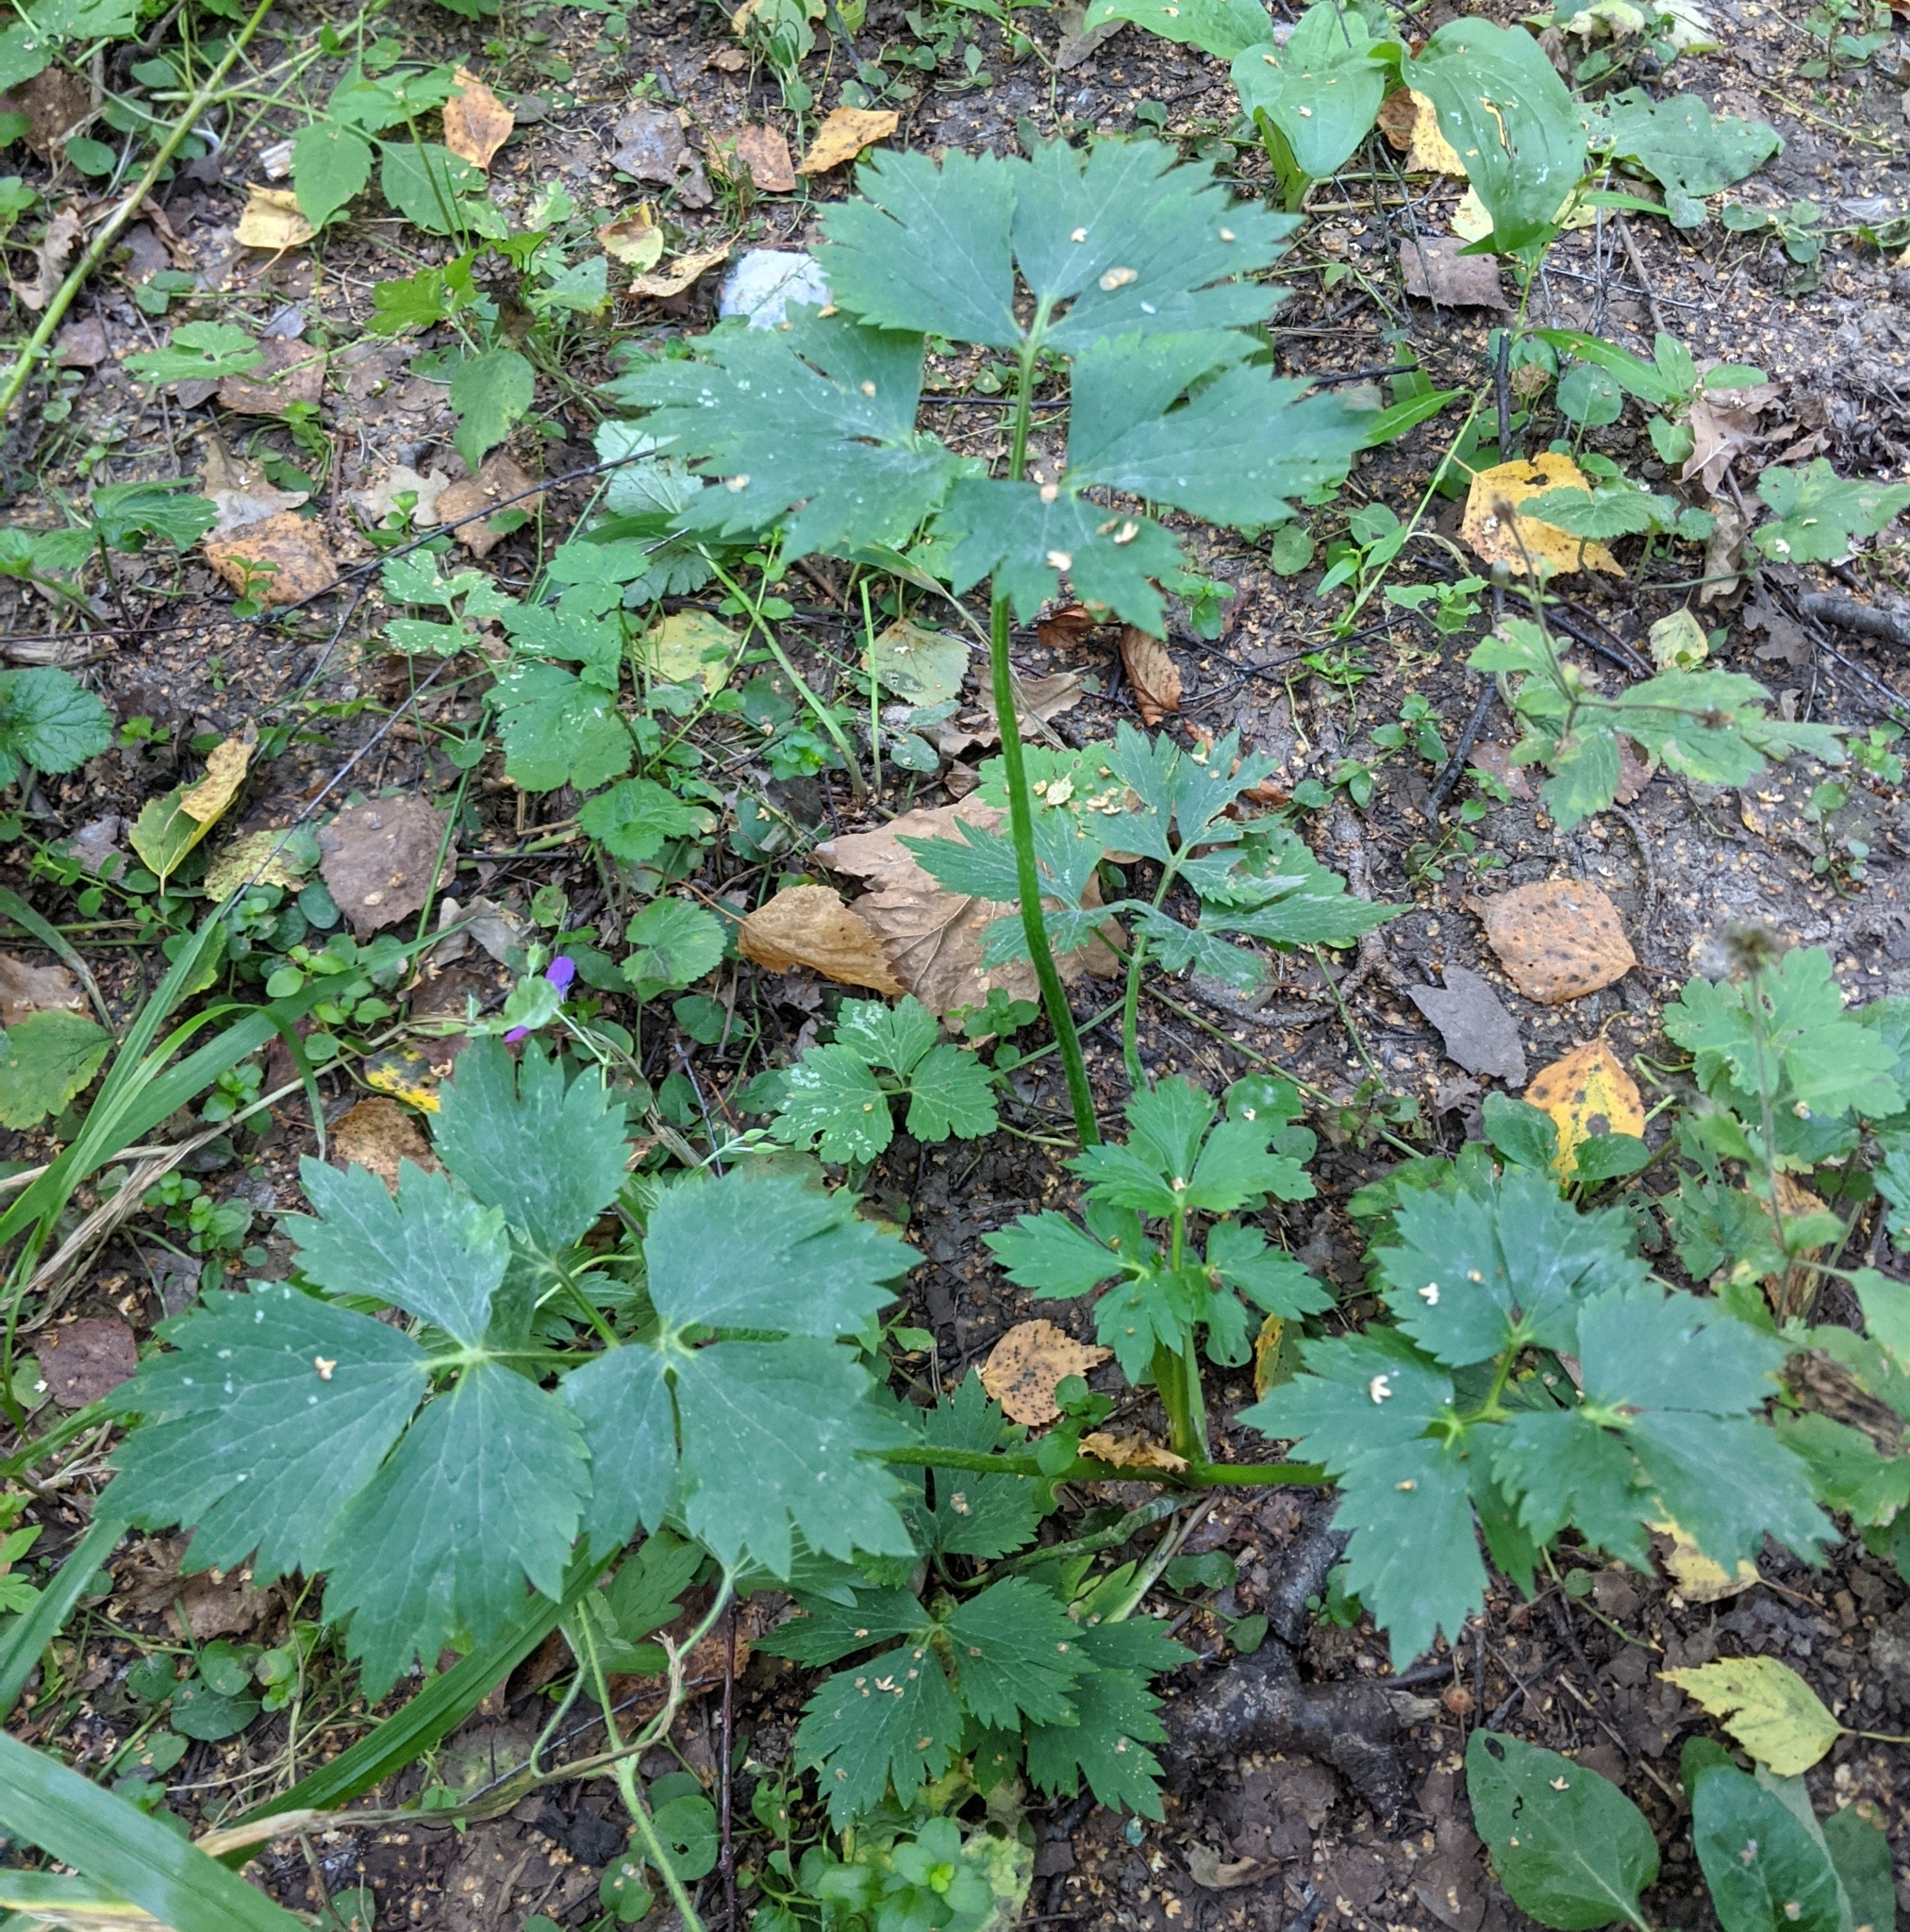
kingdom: Plantae
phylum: Tracheophyta
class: Magnoliopsida
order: Ranunculales
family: Ranunculaceae
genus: Ranunculus
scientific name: Ranunculus repens
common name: Creeping buttercup
